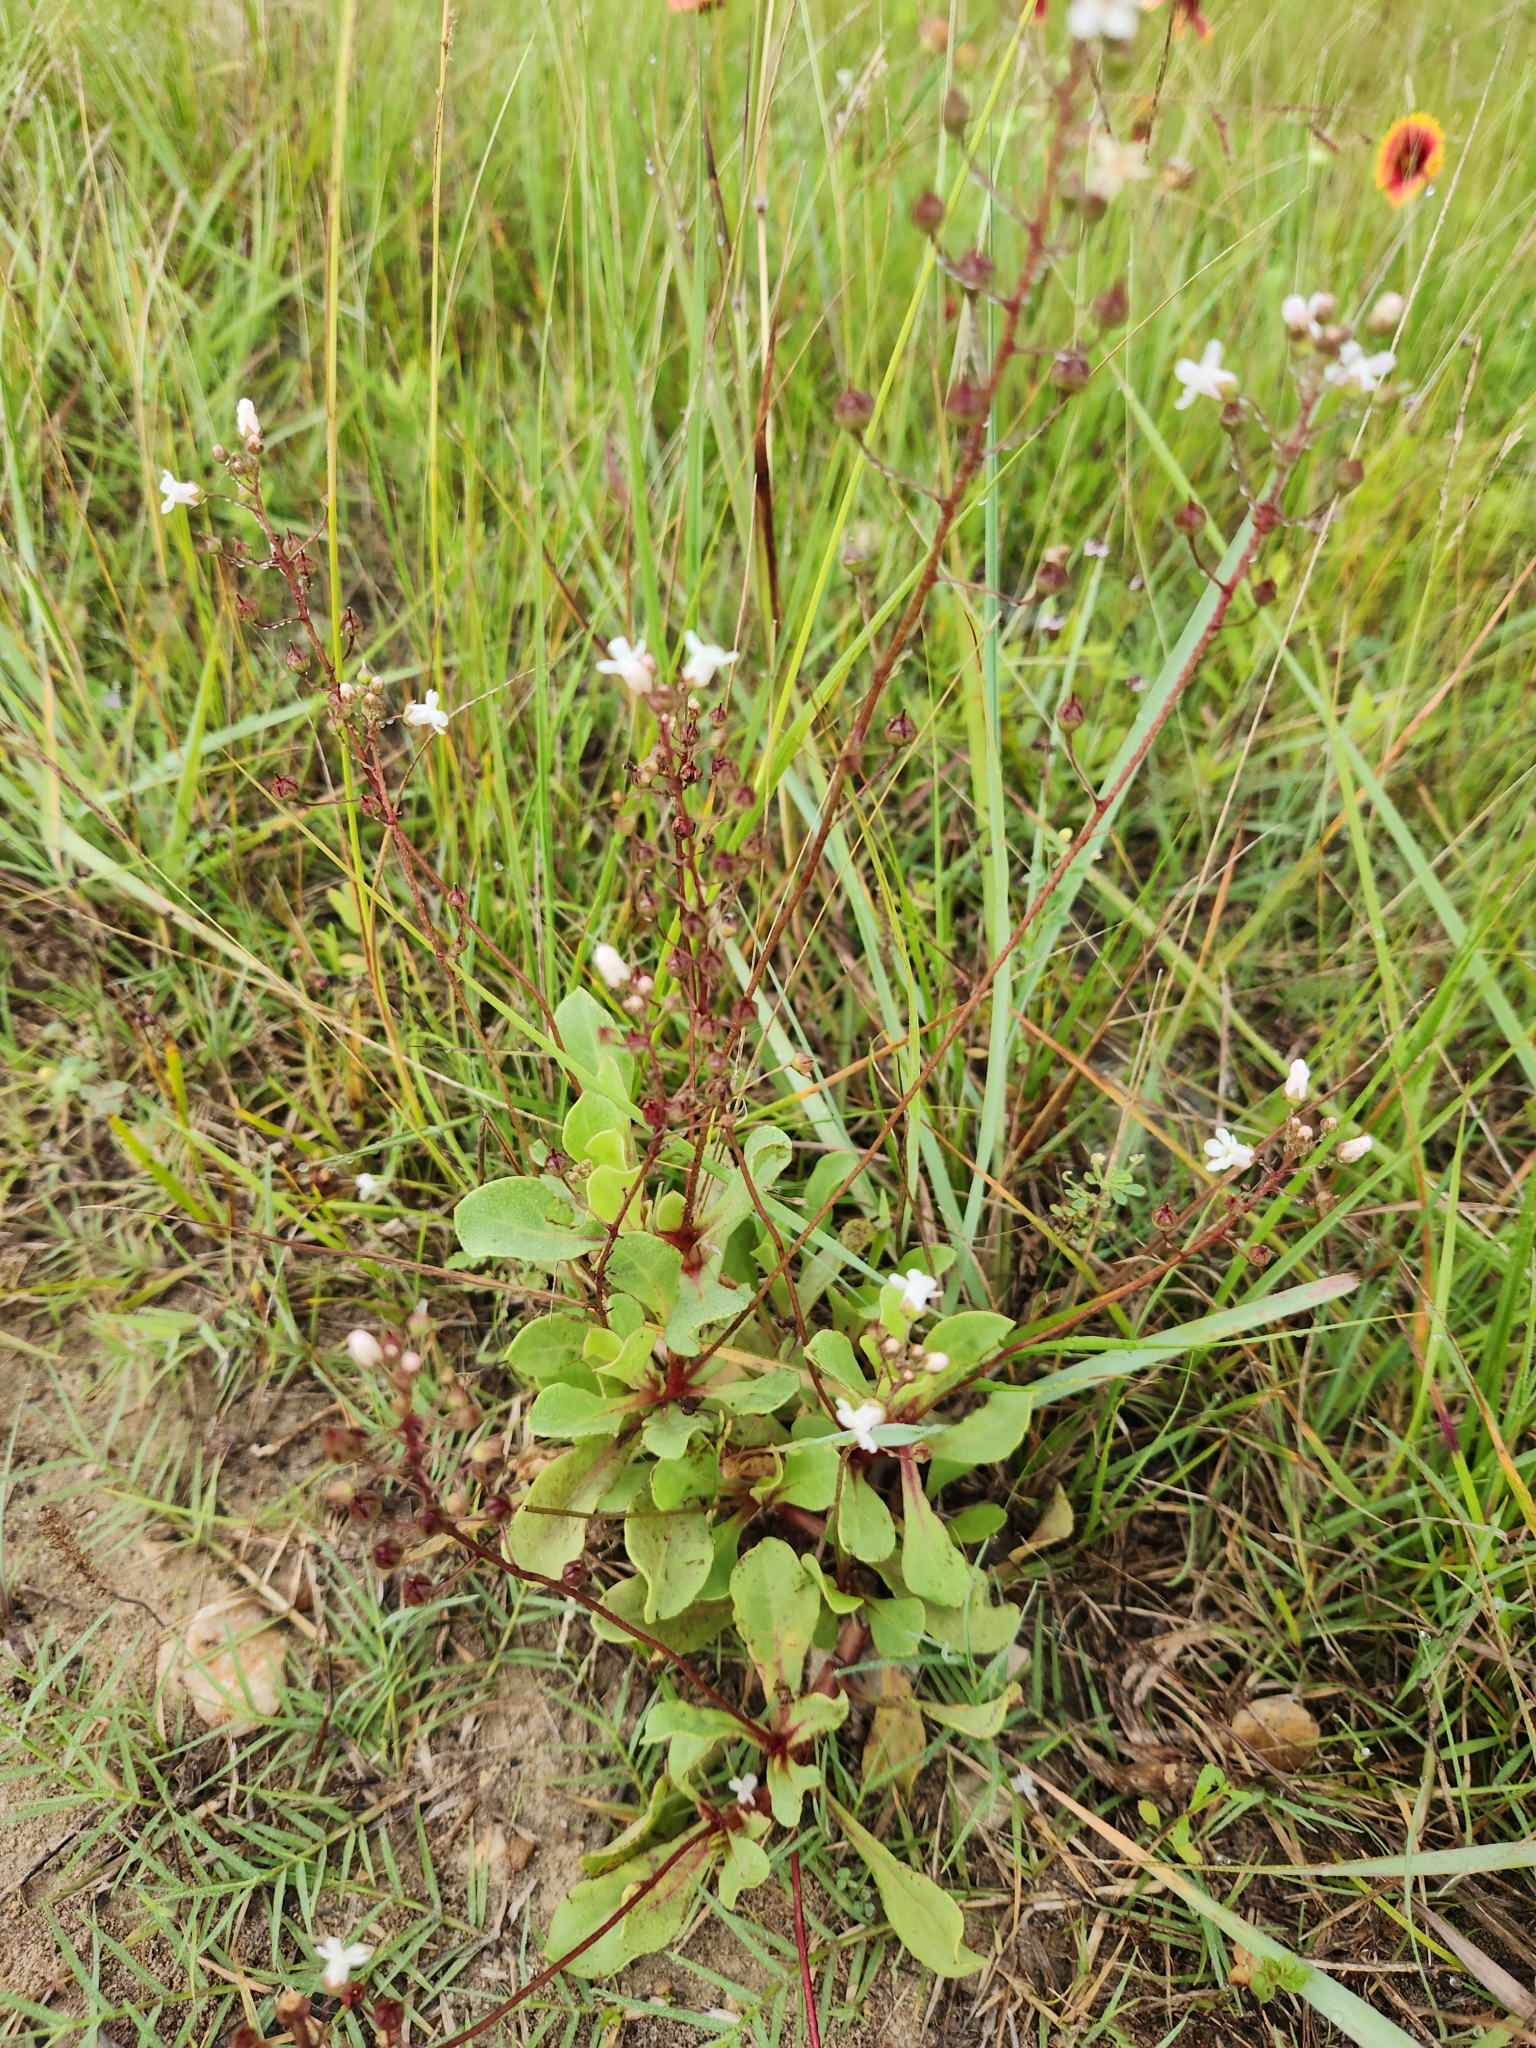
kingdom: Plantae
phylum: Tracheophyta
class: Magnoliopsida
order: Ericales
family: Primulaceae
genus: Samolus
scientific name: Samolus ebracteatus
